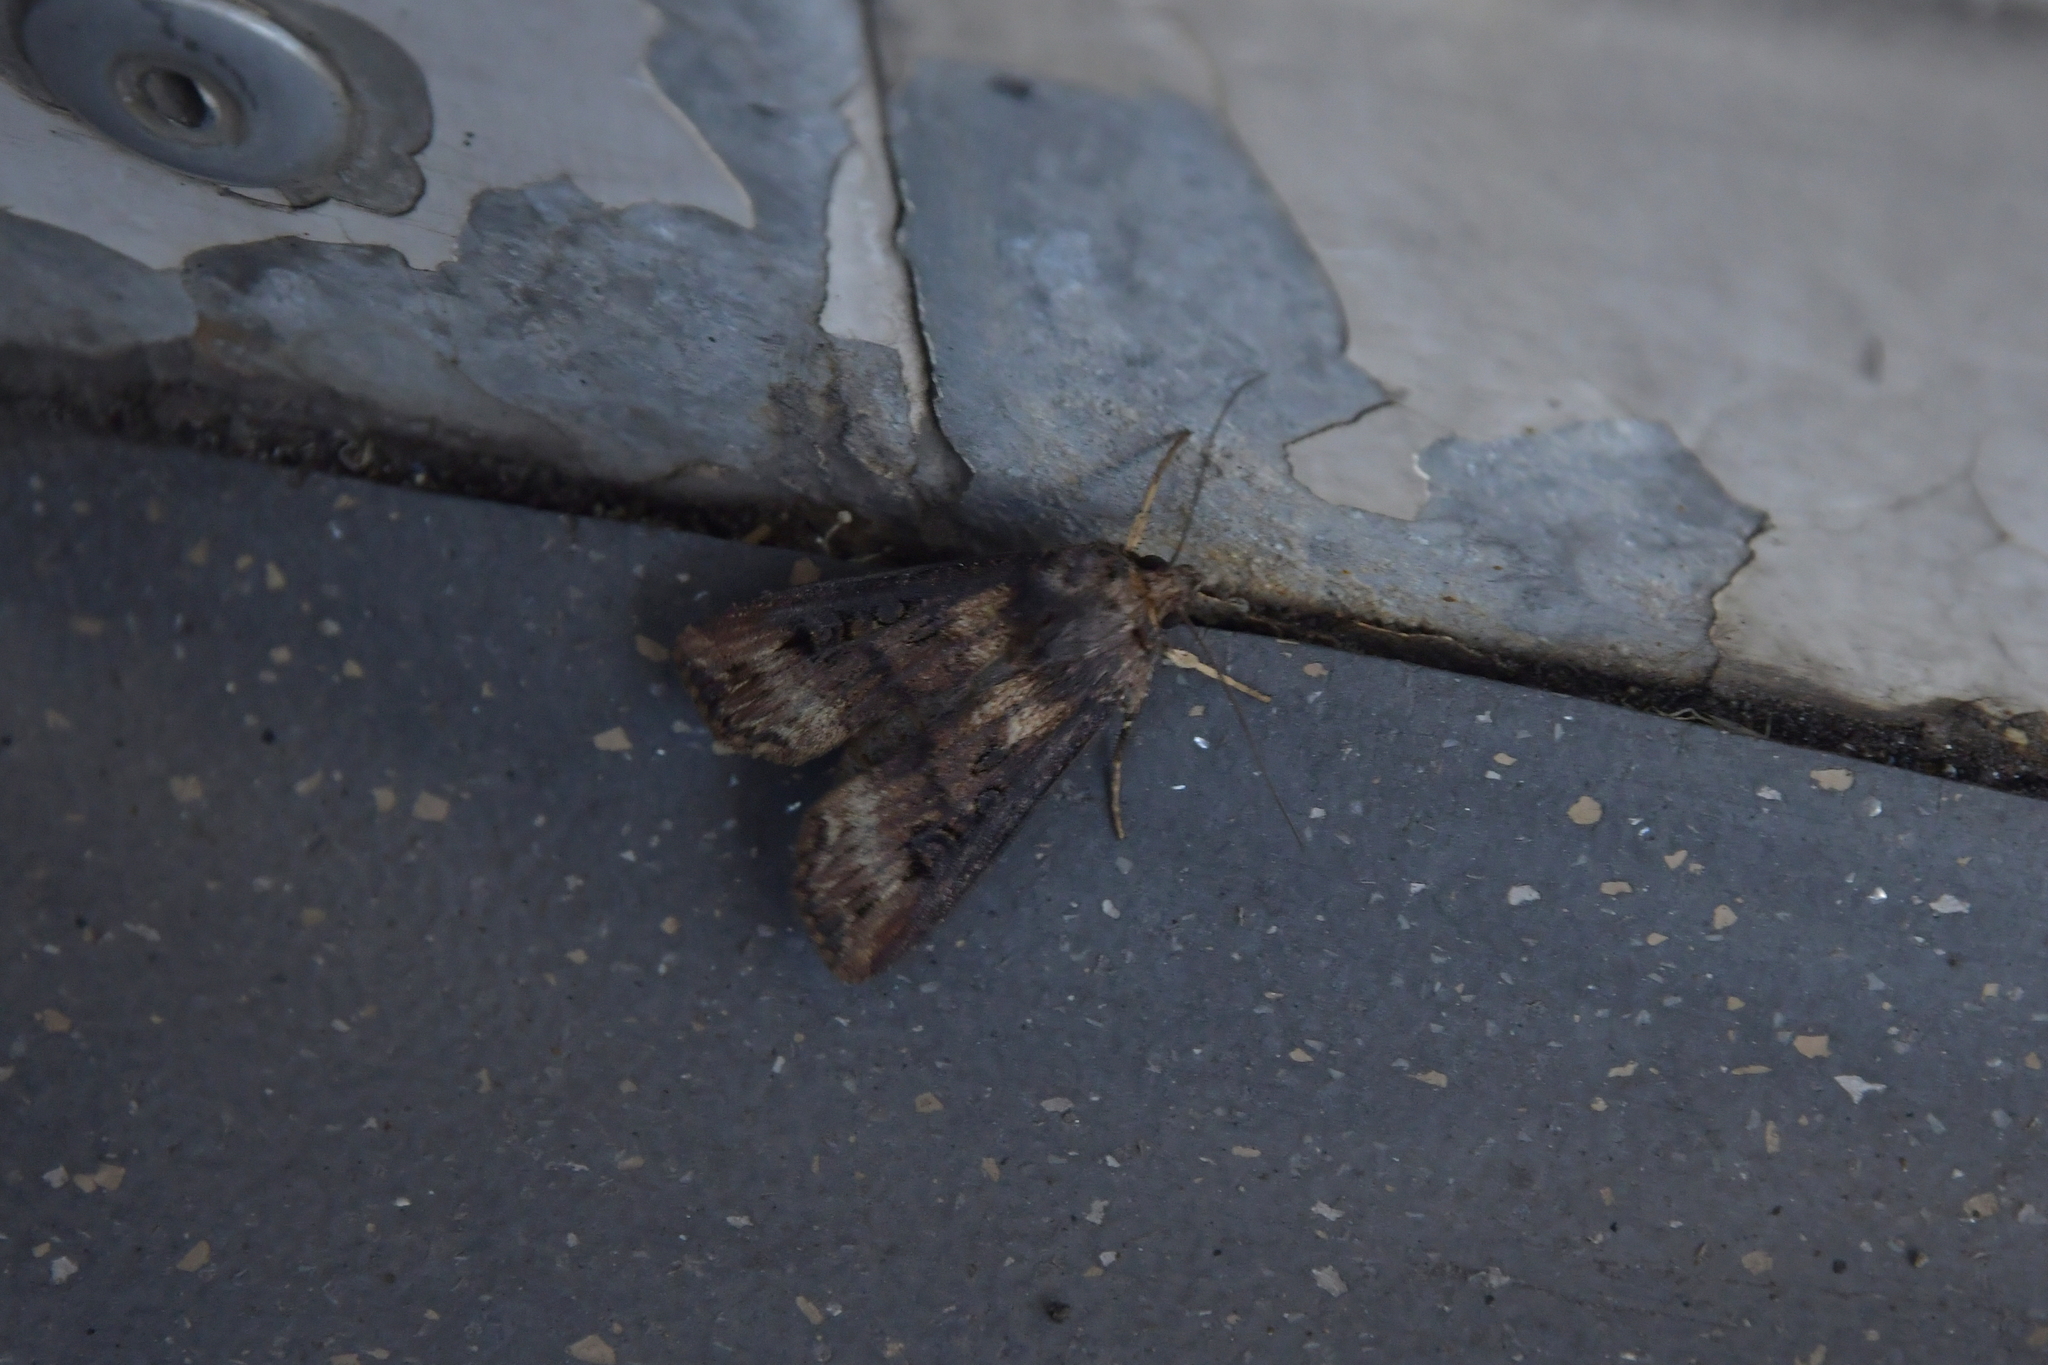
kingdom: Animalia
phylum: Arthropoda
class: Insecta
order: Lepidoptera
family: Noctuidae
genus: Agrotis
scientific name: Agrotis ipsilon
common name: Dark sword-grass
